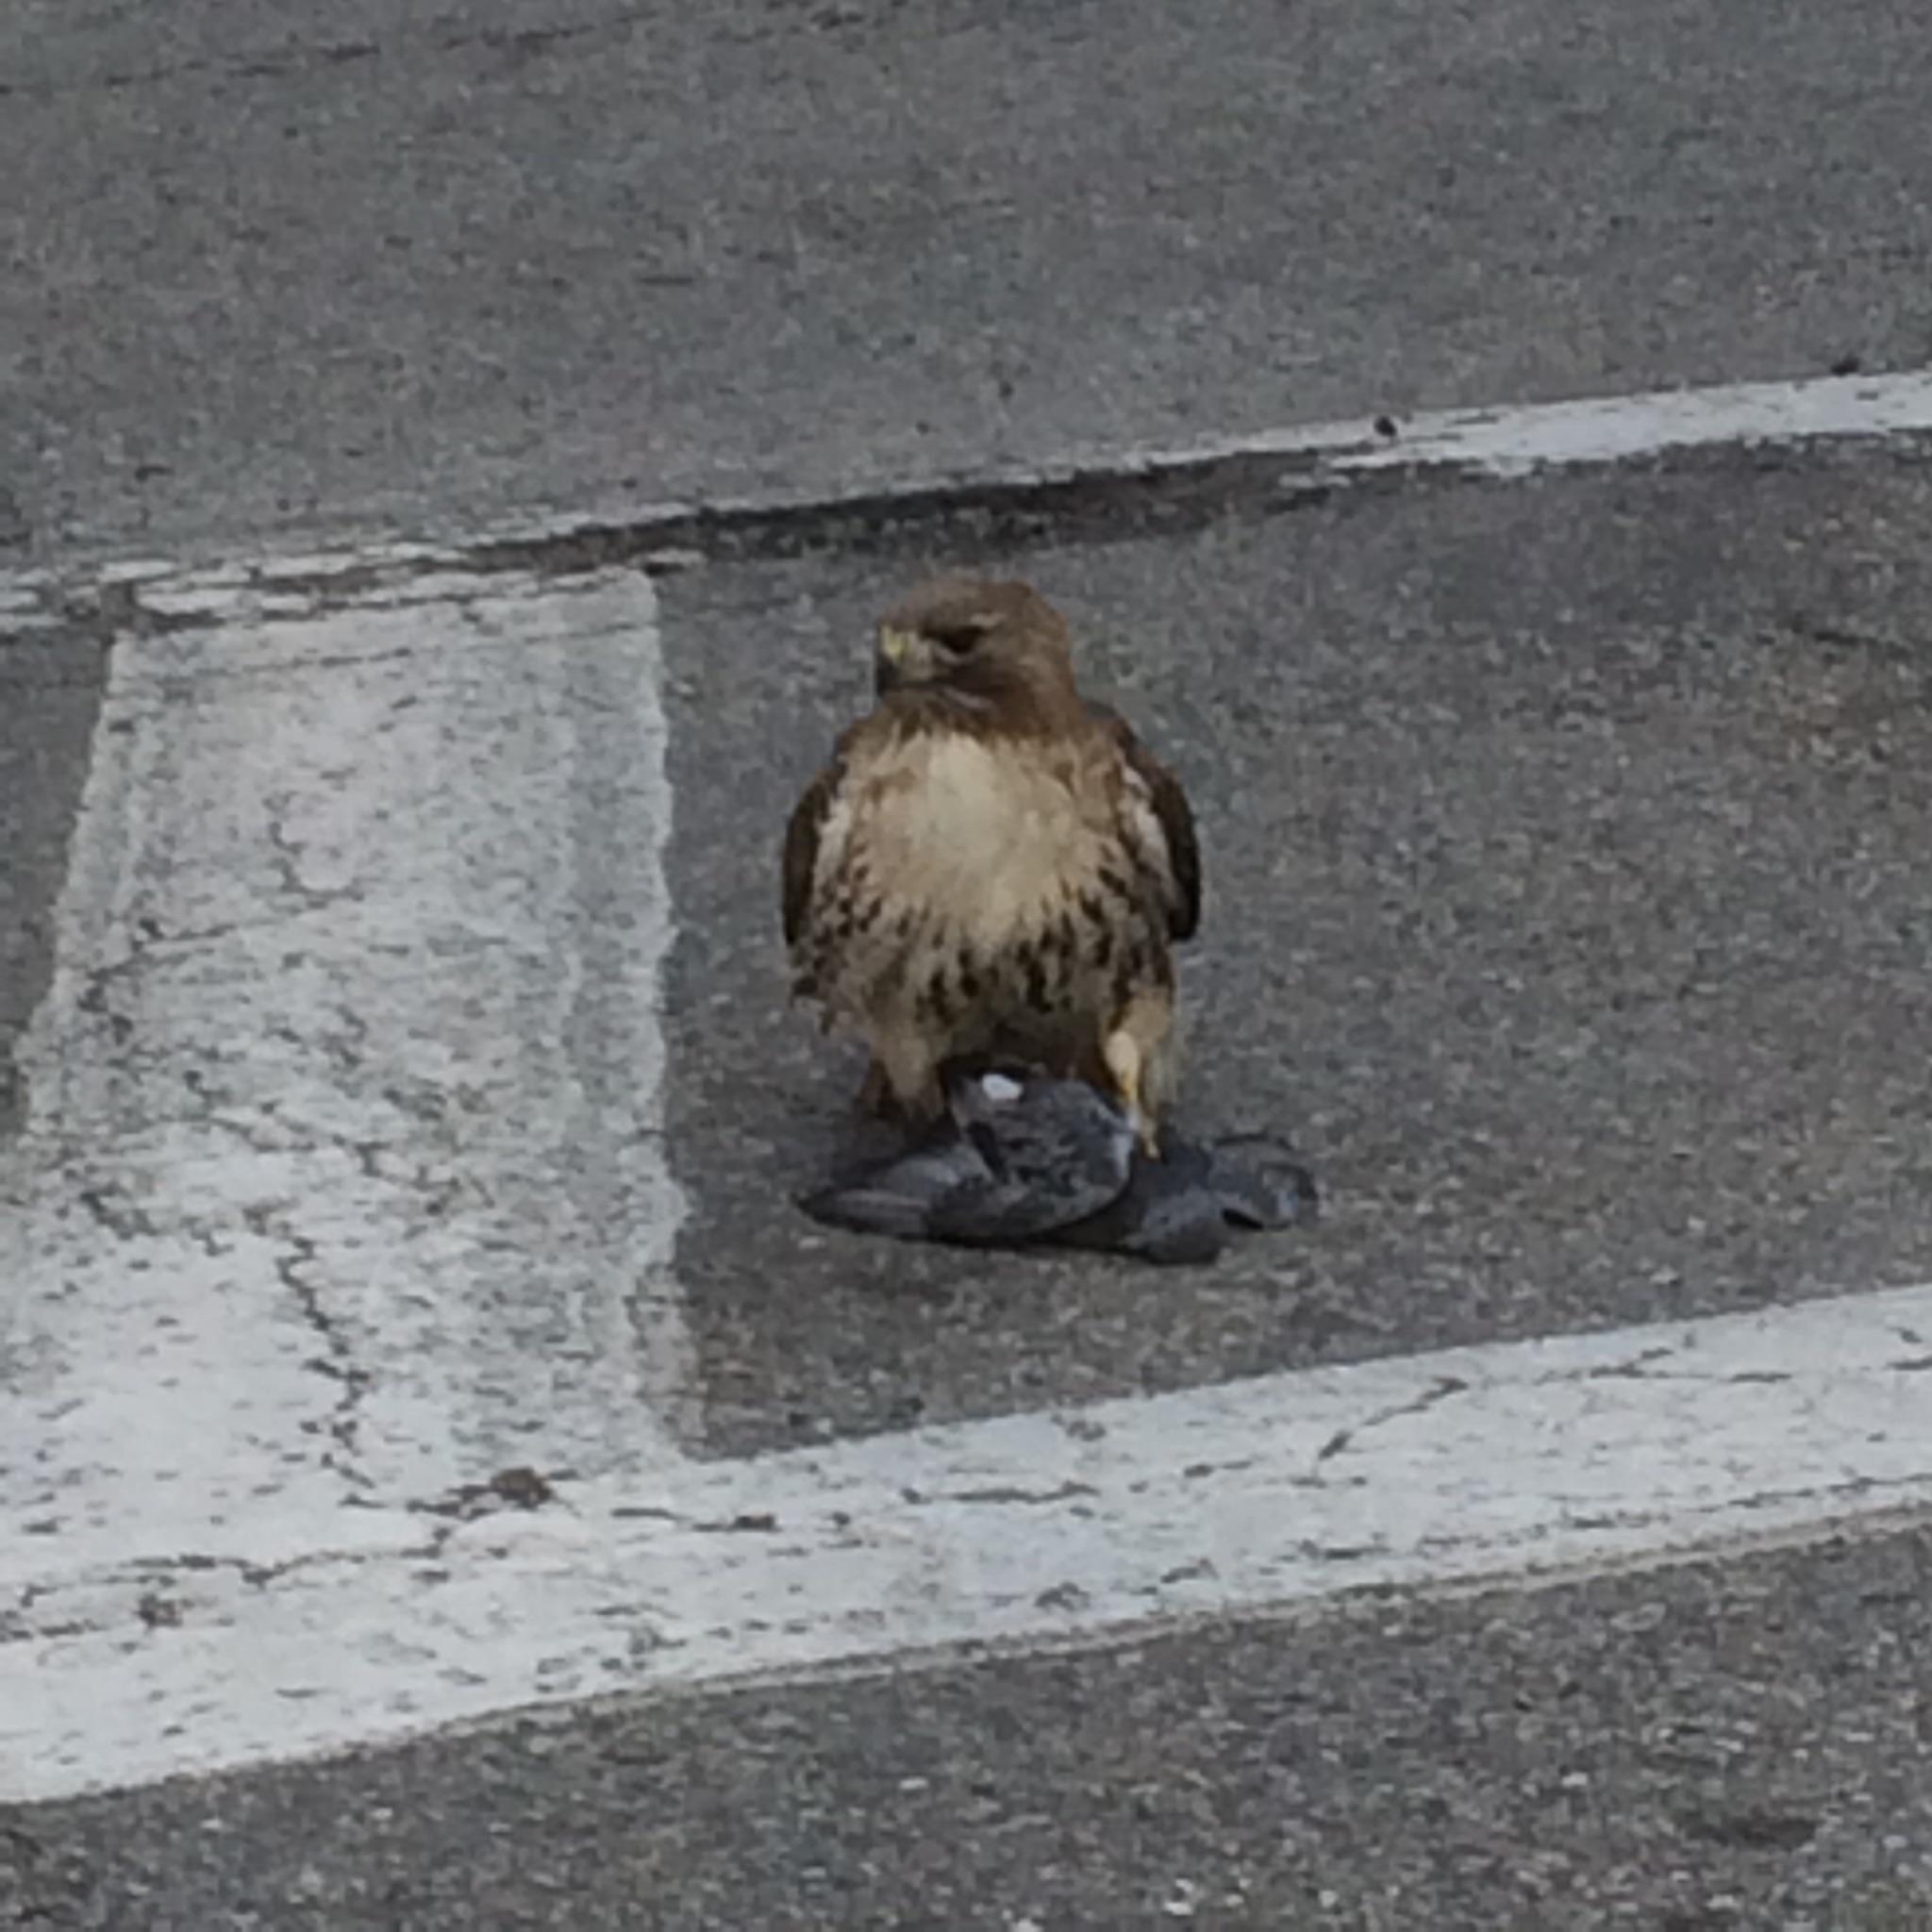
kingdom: Animalia
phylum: Chordata
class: Aves
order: Accipitriformes
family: Accipitridae
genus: Buteo
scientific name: Buteo jamaicensis
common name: Red-tailed hawk
